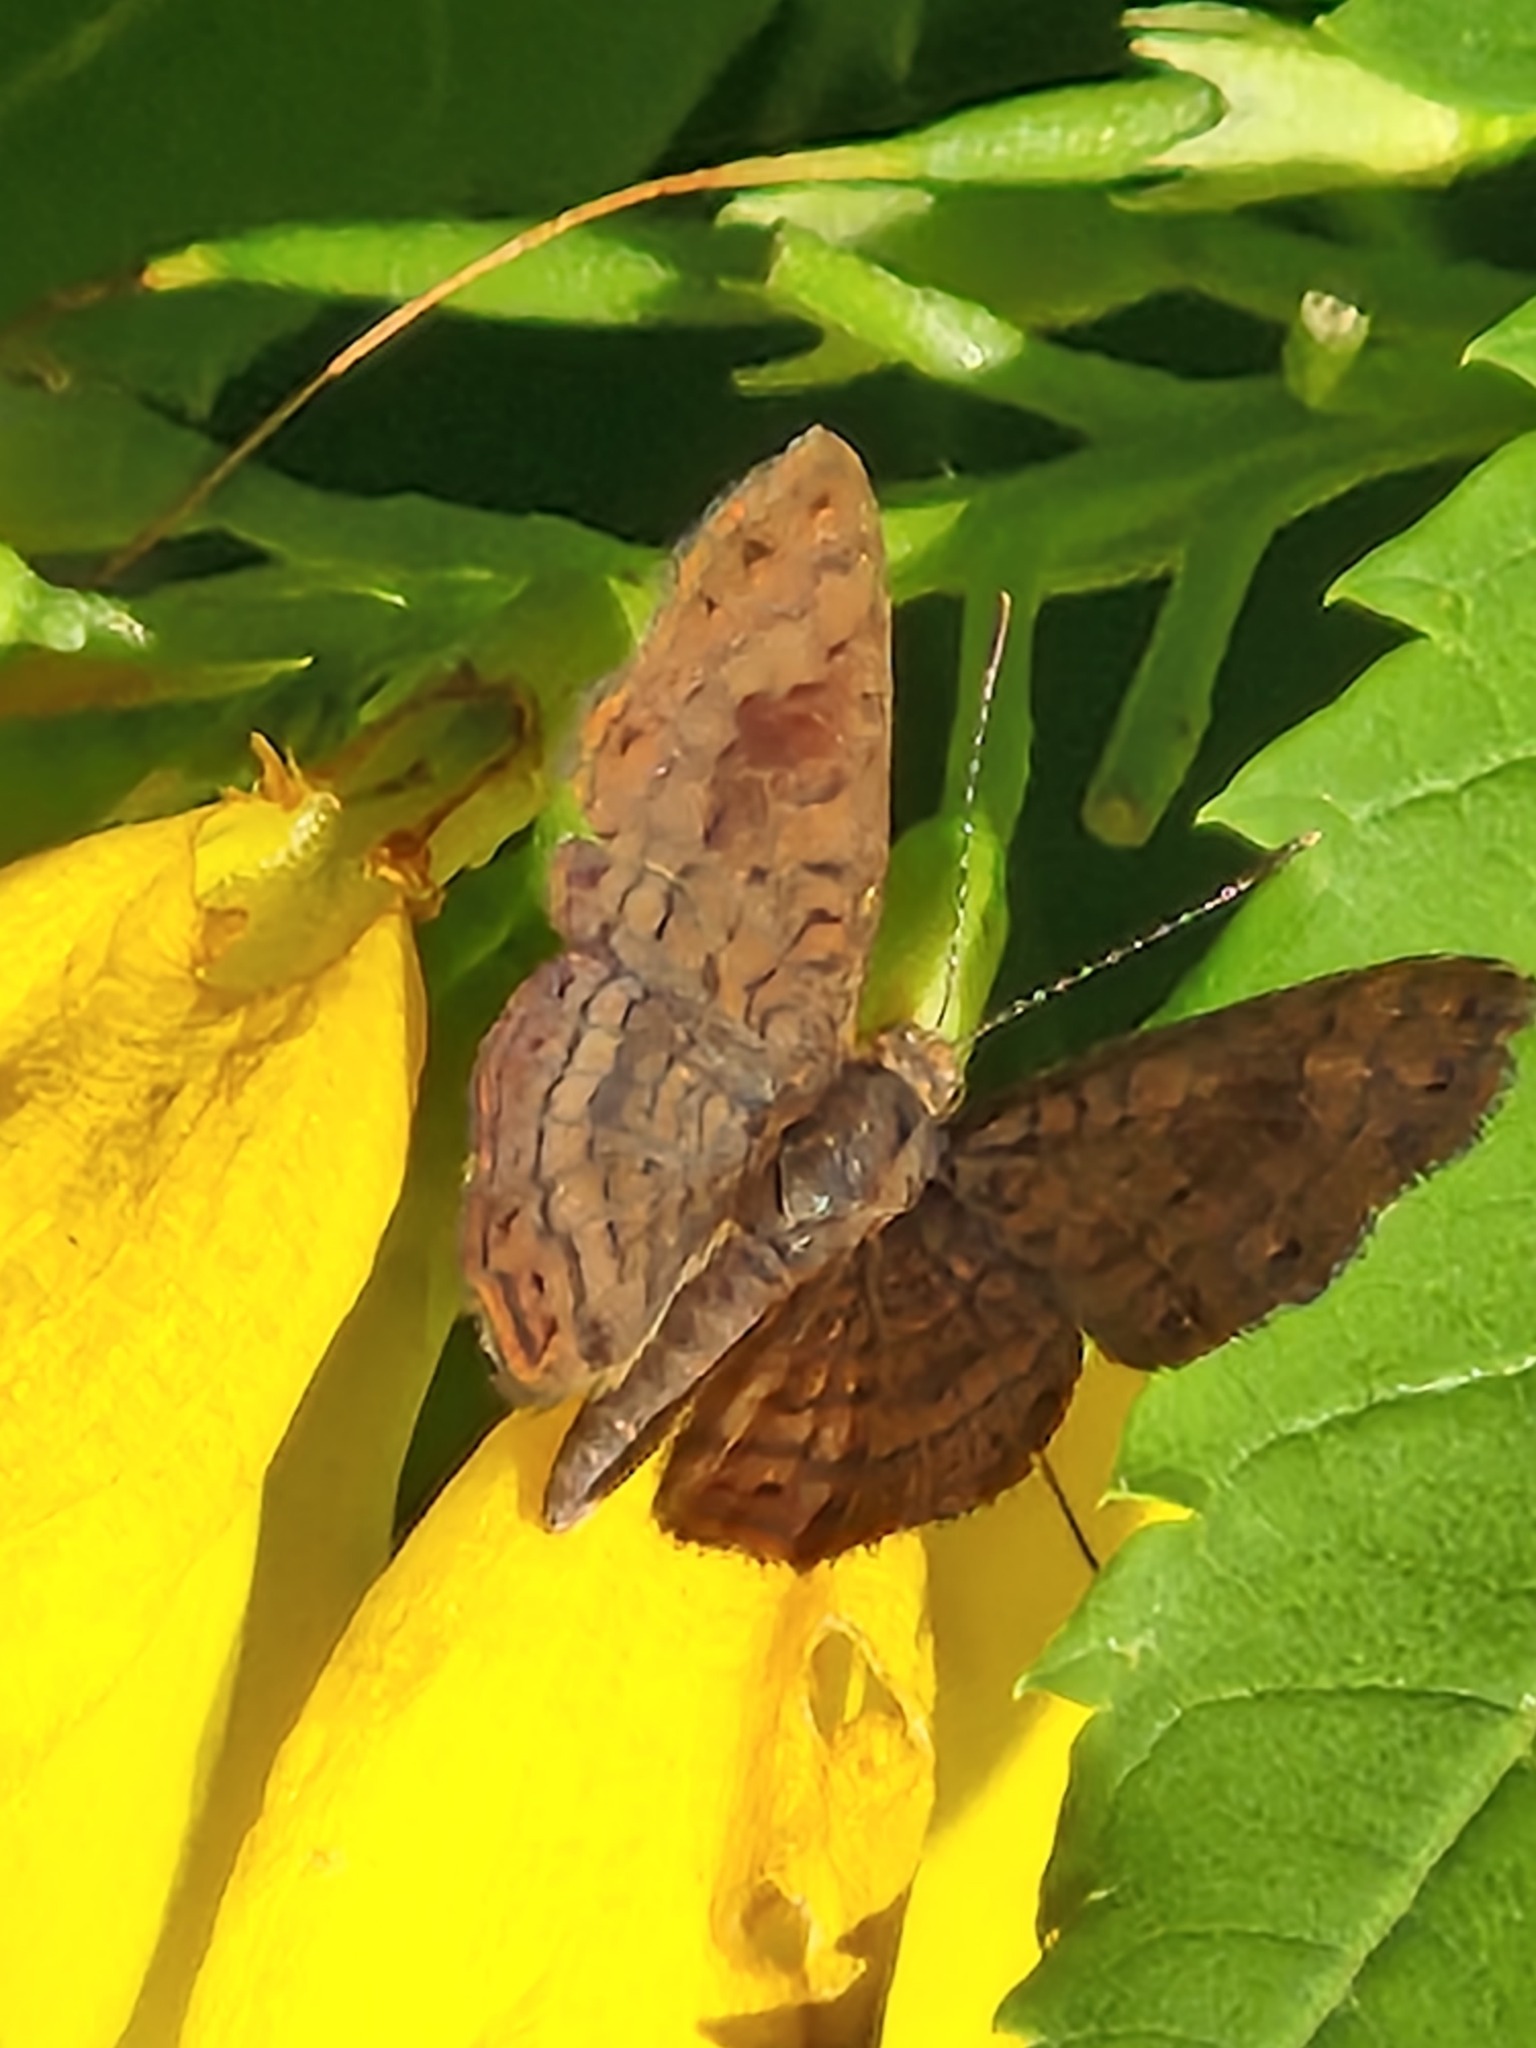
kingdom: Animalia
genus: Calephelis
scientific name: Calephelis nemesis
